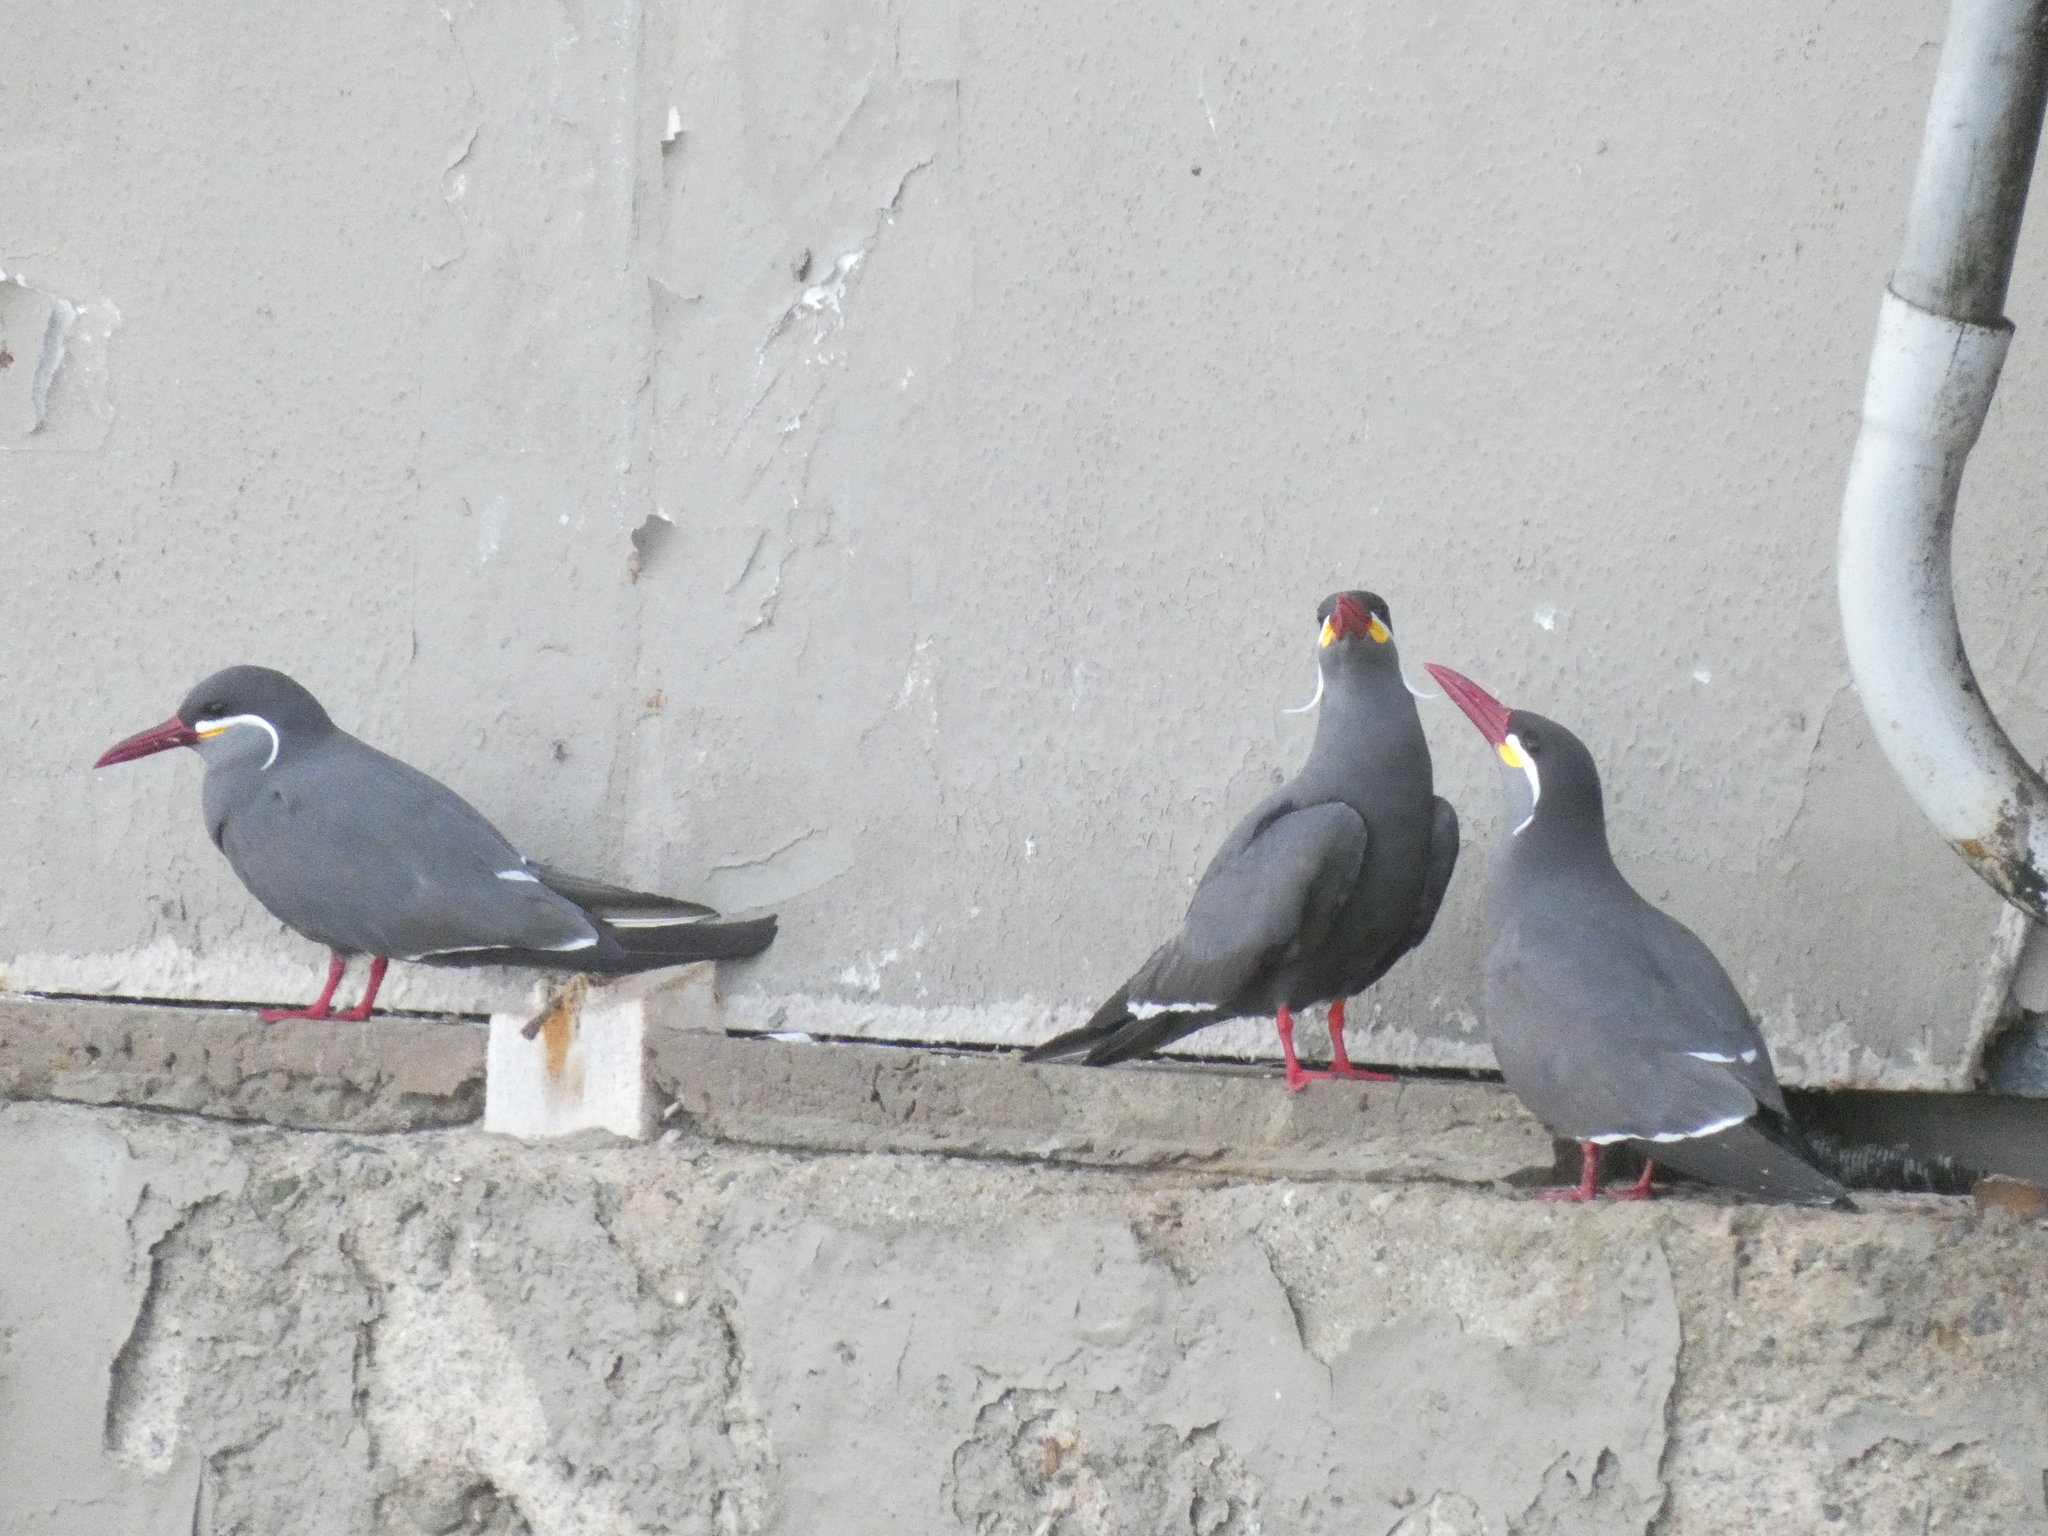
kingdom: Animalia
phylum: Chordata
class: Aves
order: Charadriiformes
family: Laridae
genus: Larosterna
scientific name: Larosterna inca
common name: Inca tern
